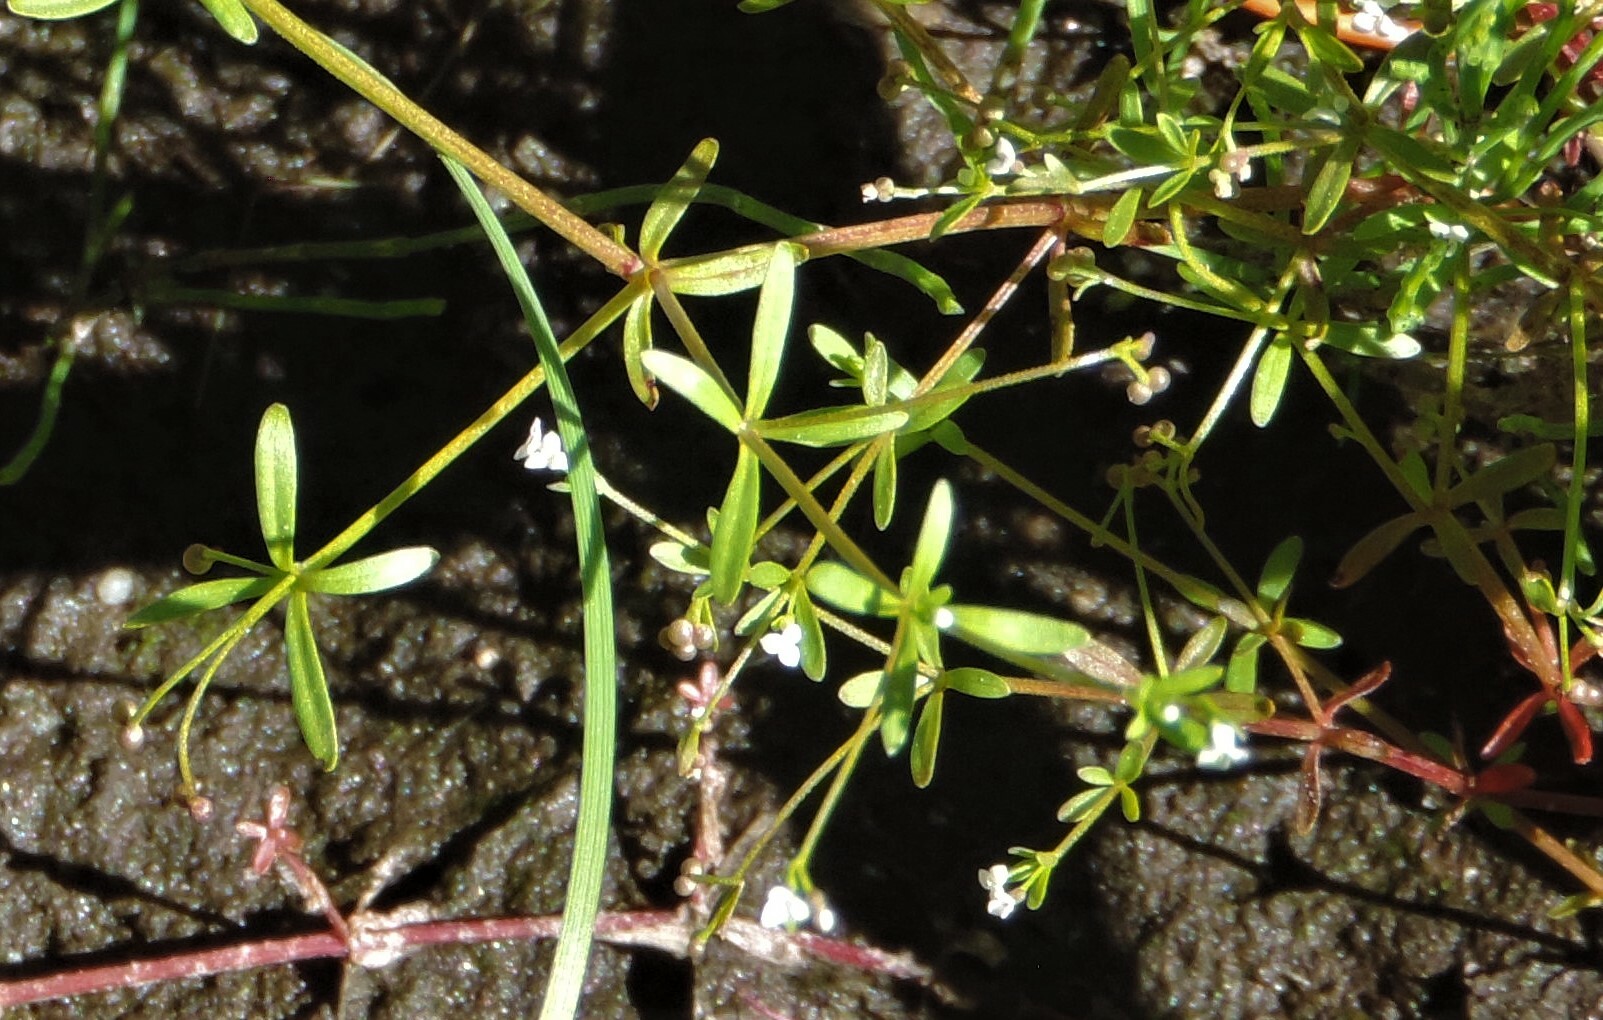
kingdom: Plantae
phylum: Tracheophyta
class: Magnoliopsida
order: Gentianales
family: Rubiaceae
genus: Galium
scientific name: Galium trifidum
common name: Small bedstraw
